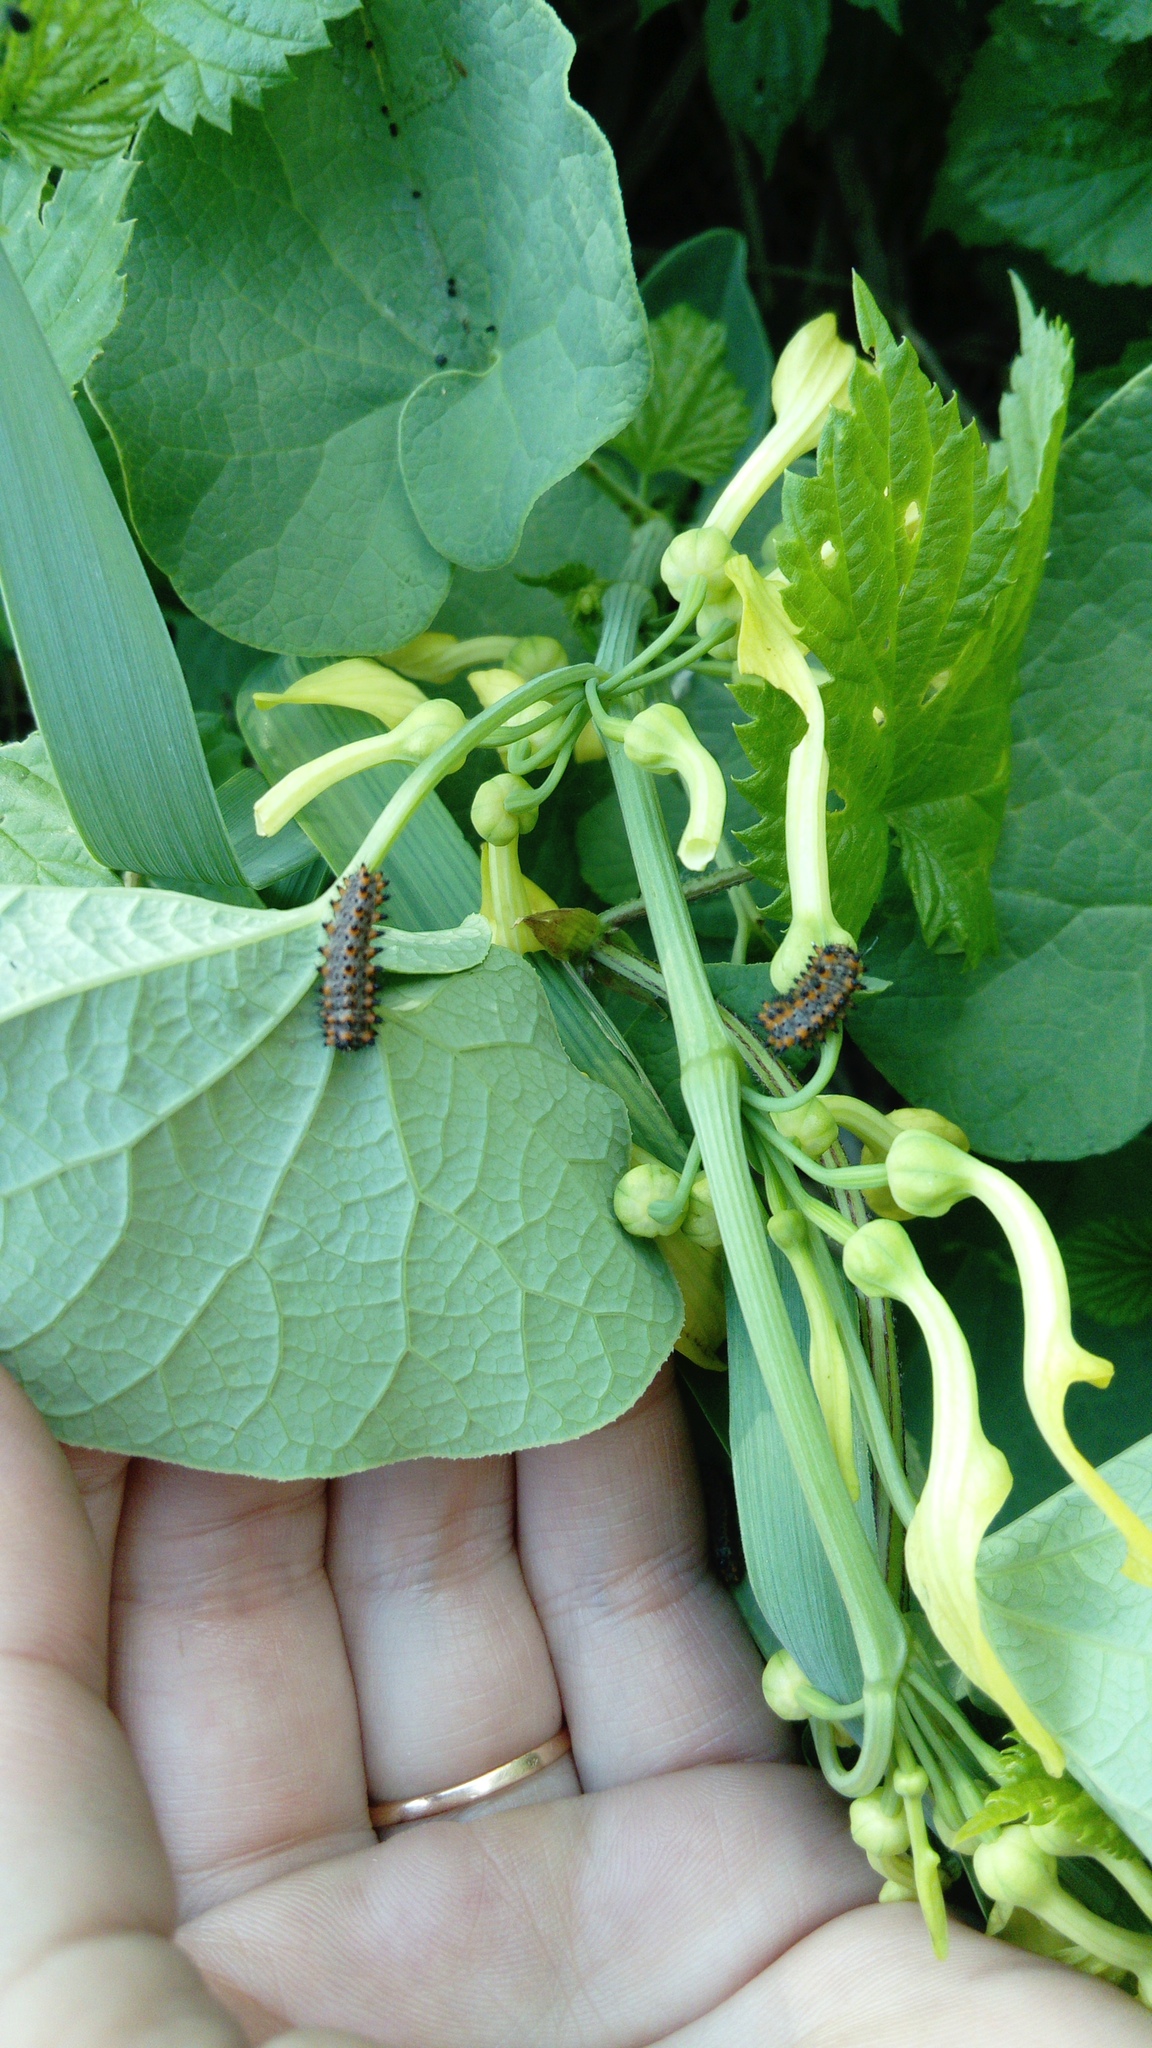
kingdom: Animalia
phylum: Arthropoda
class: Insecta
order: Lepidoptera
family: Papilionidae
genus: Zerynthia
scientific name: Zerynthia polyxena
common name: Southern festoon
